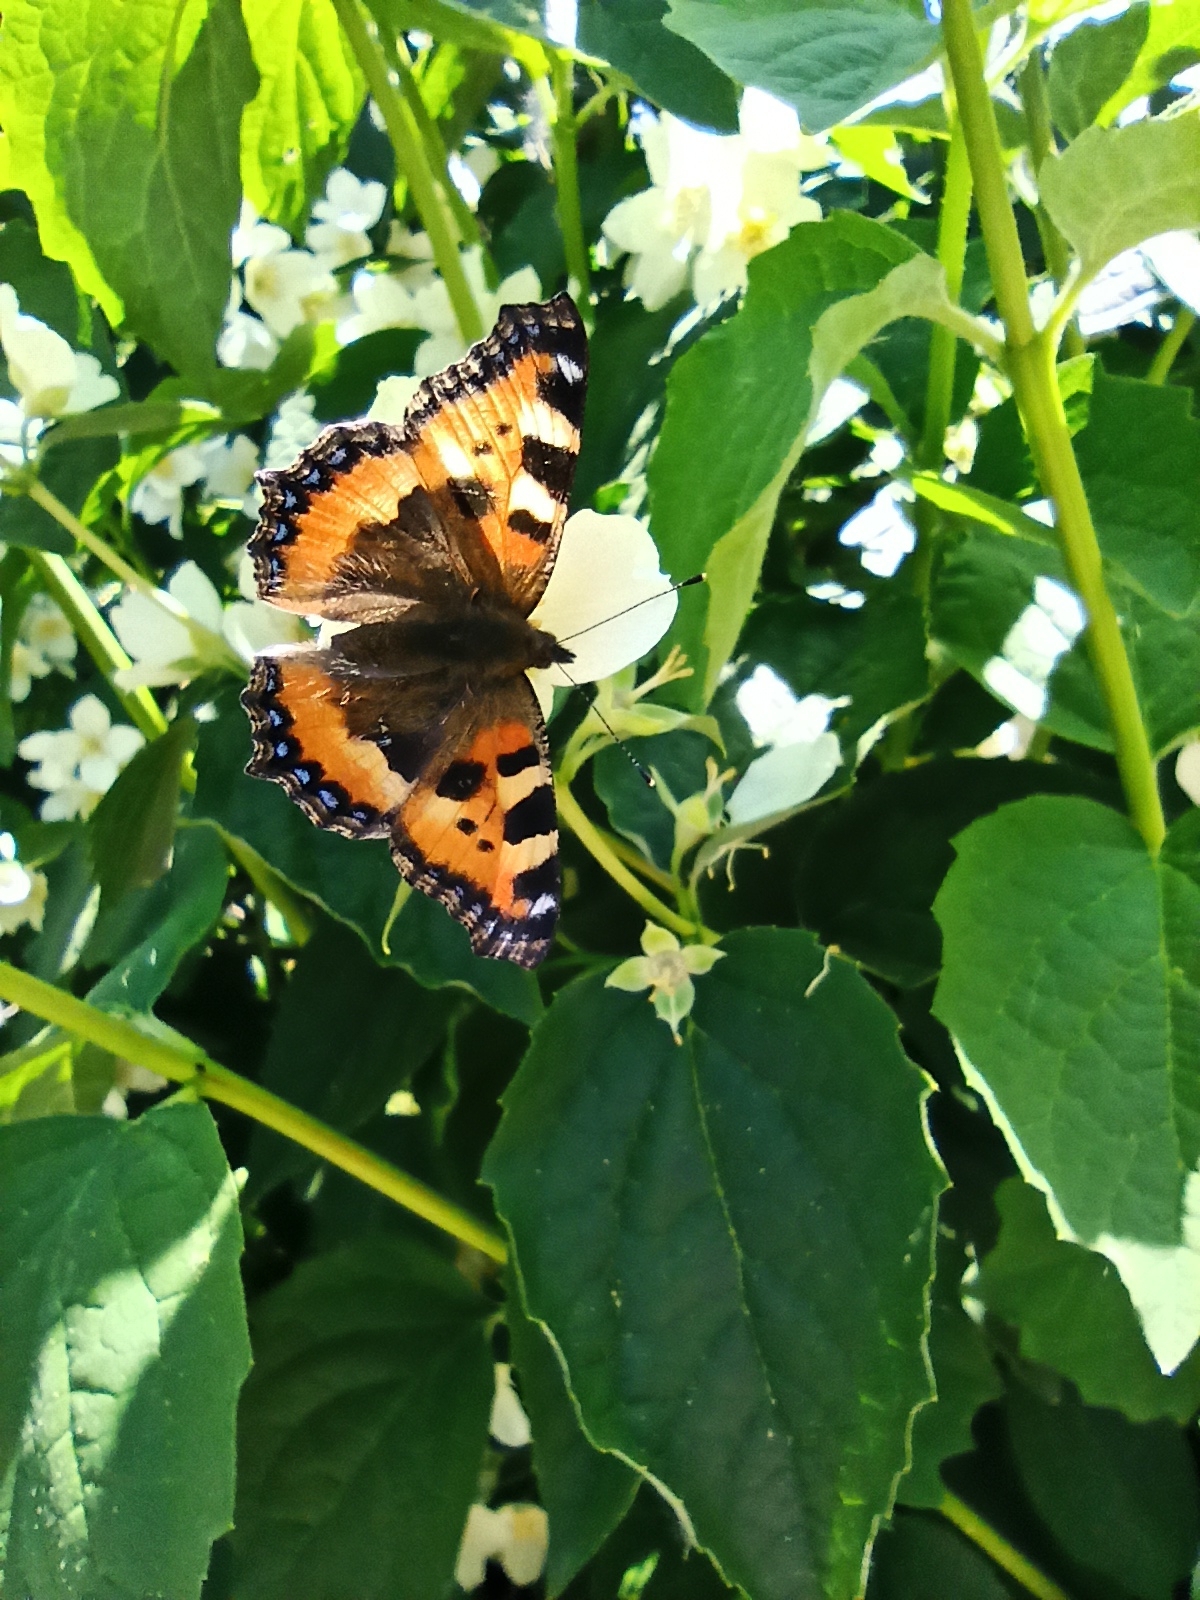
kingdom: Animalia
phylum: Arthropoda
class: Insecta
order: Lepidoptera
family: Nymphalidae
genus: Aglais
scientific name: Aglais urticae
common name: Small tortoiseshell
